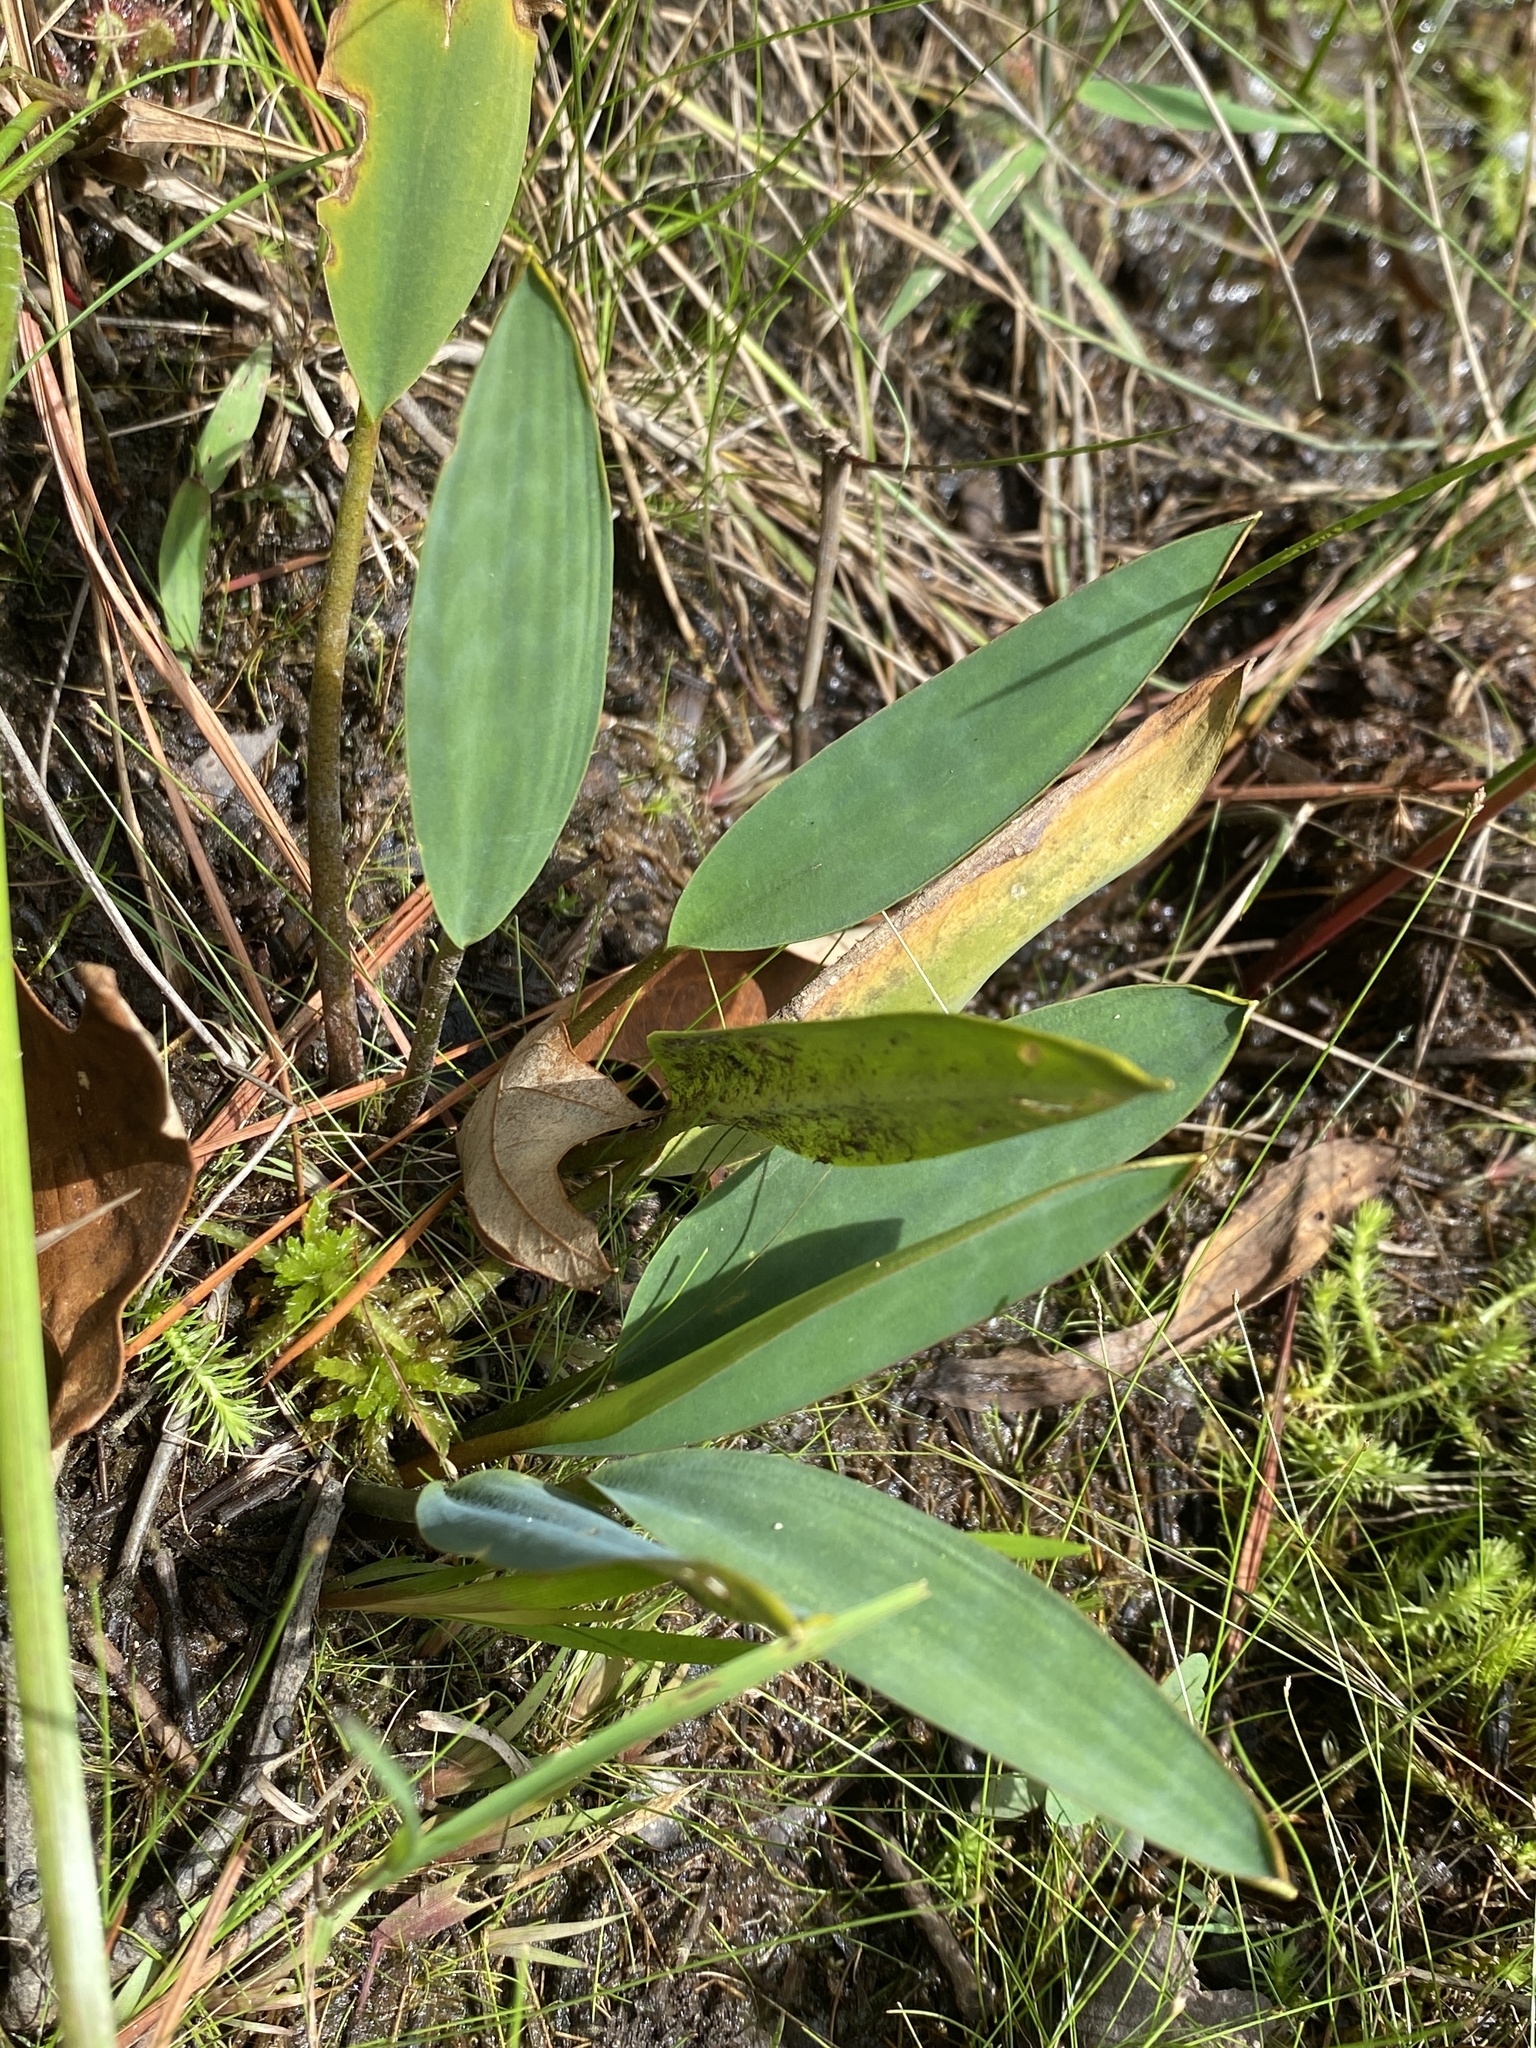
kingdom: Plantae
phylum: Tracheophyta
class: Liliopsida
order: Alismatales
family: Araceae
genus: Orontium
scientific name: Orontium aquaticum
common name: Golden-club
